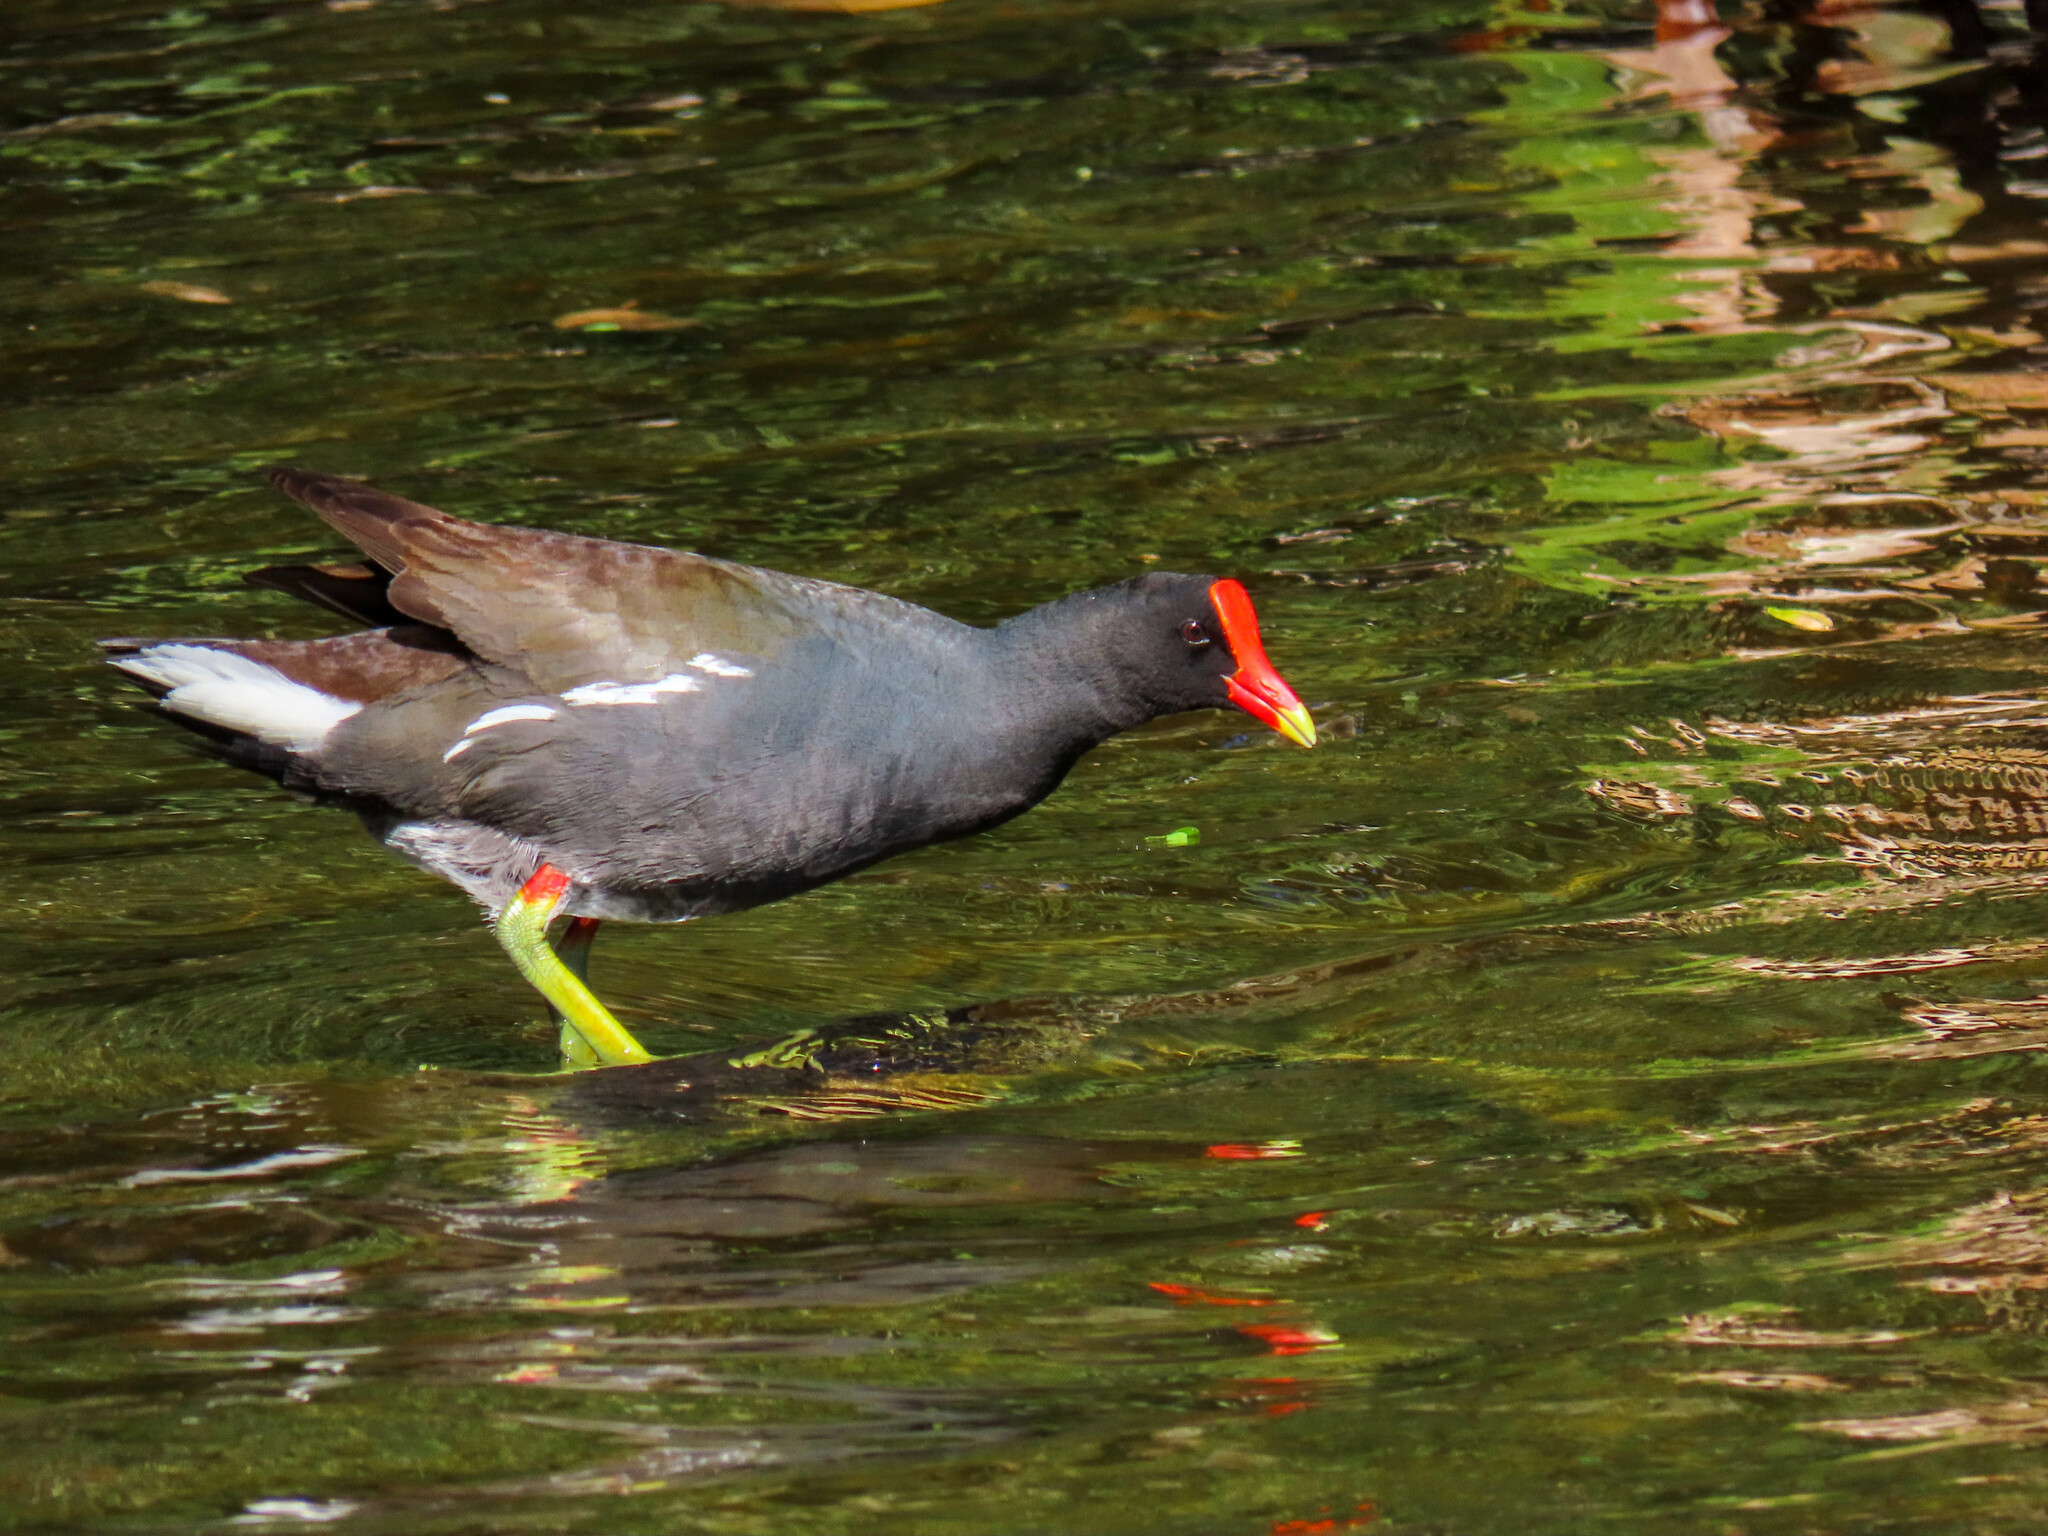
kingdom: Animalia
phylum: Chordata
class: Aves
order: Gruiformes
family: Rallidae
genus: Gallinula
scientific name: Gallinula chloropus
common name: Common moorhen
